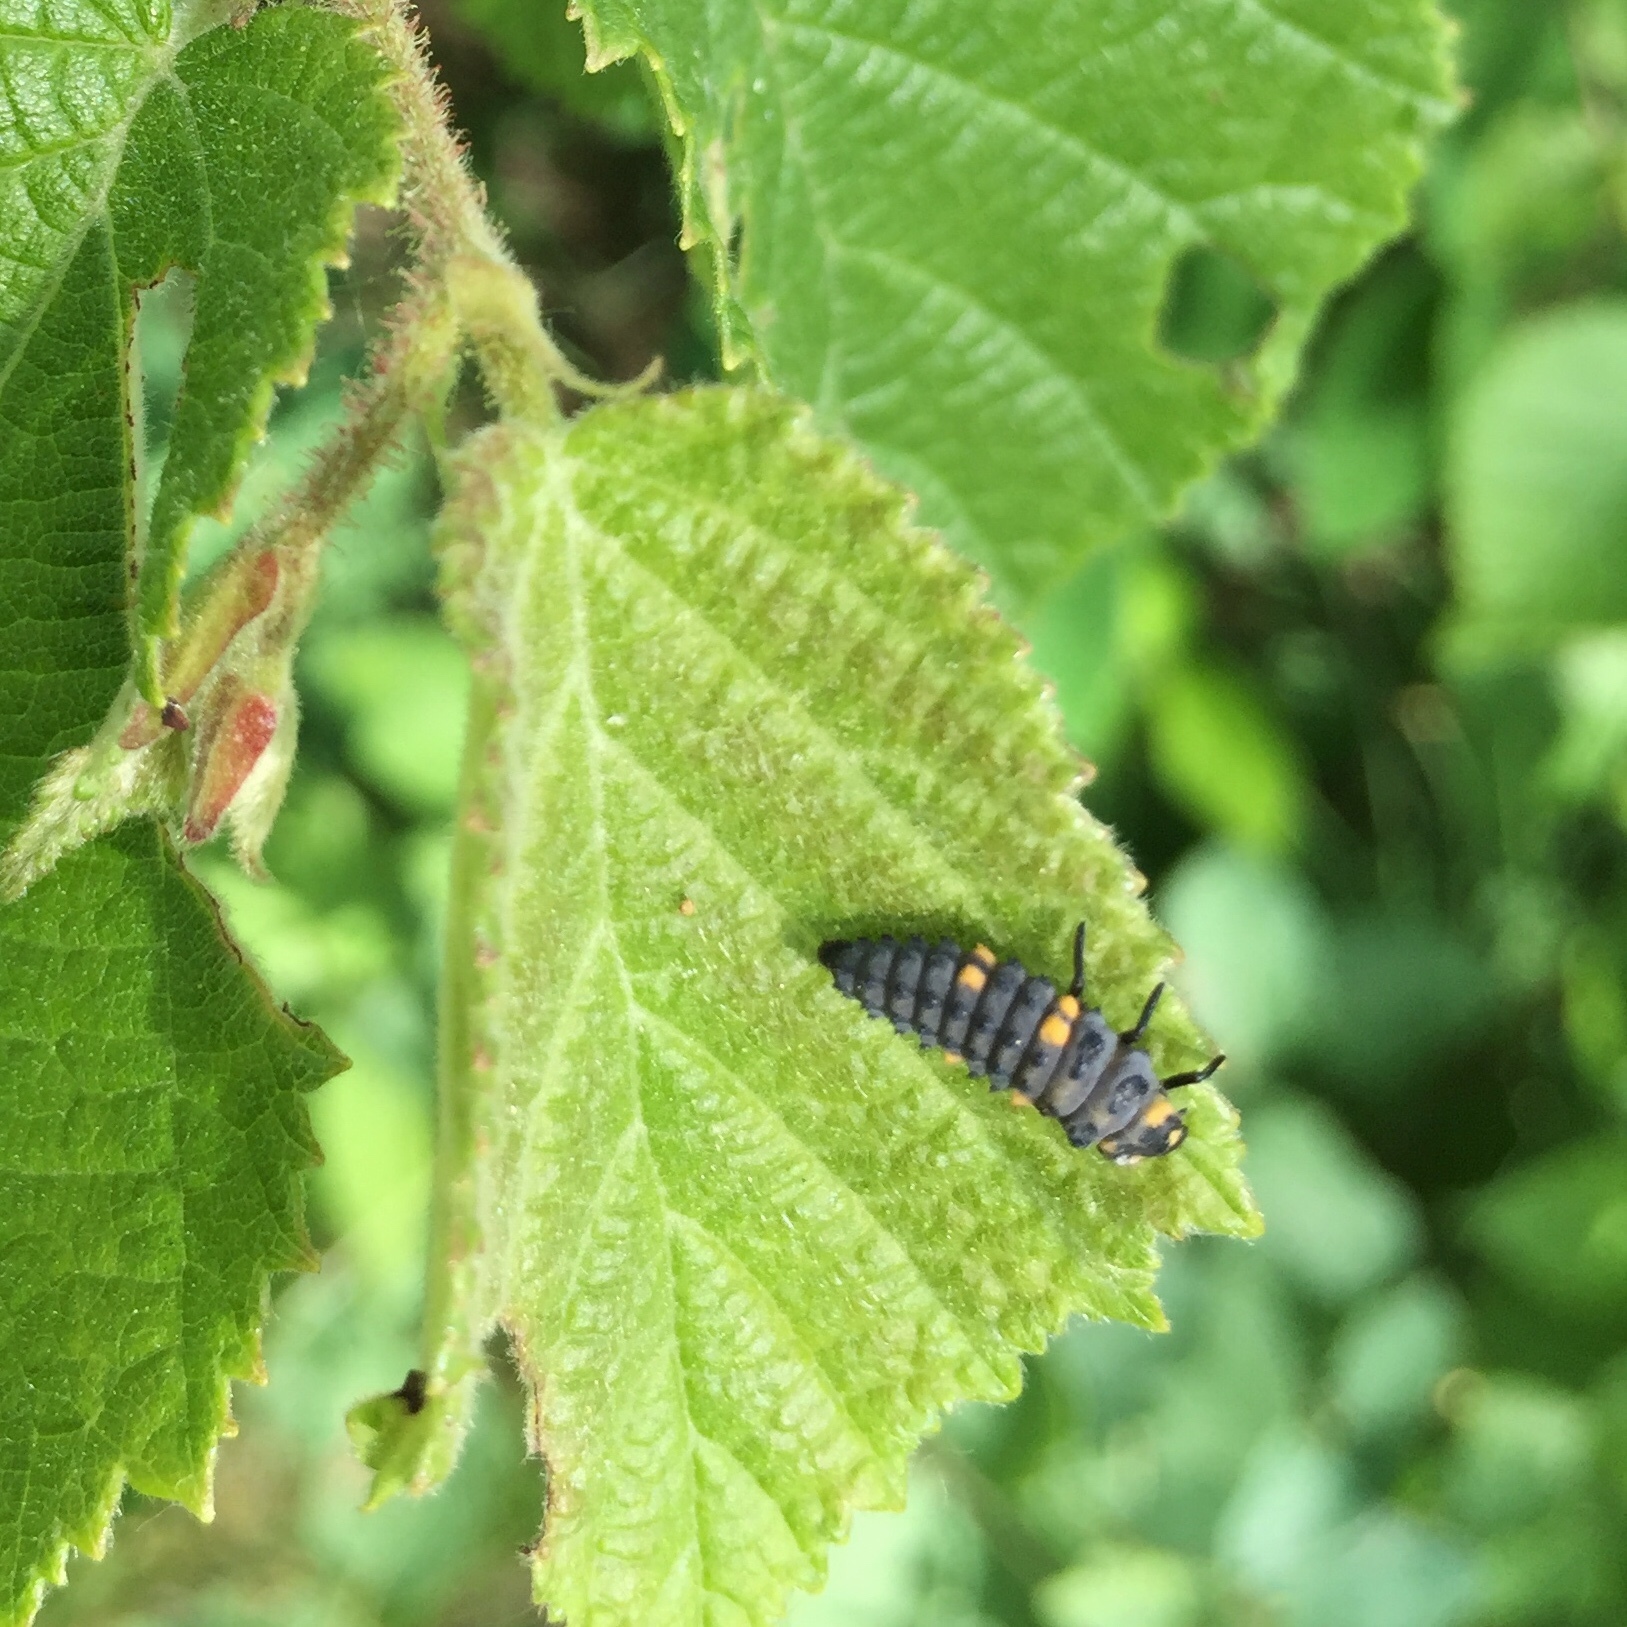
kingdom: Animalia
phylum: Arthropoda
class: Insecta
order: Coleoptera
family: Coccinellidae
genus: Coccinella
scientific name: Coccinella septempunctata
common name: Sevenspotted lady beetle
